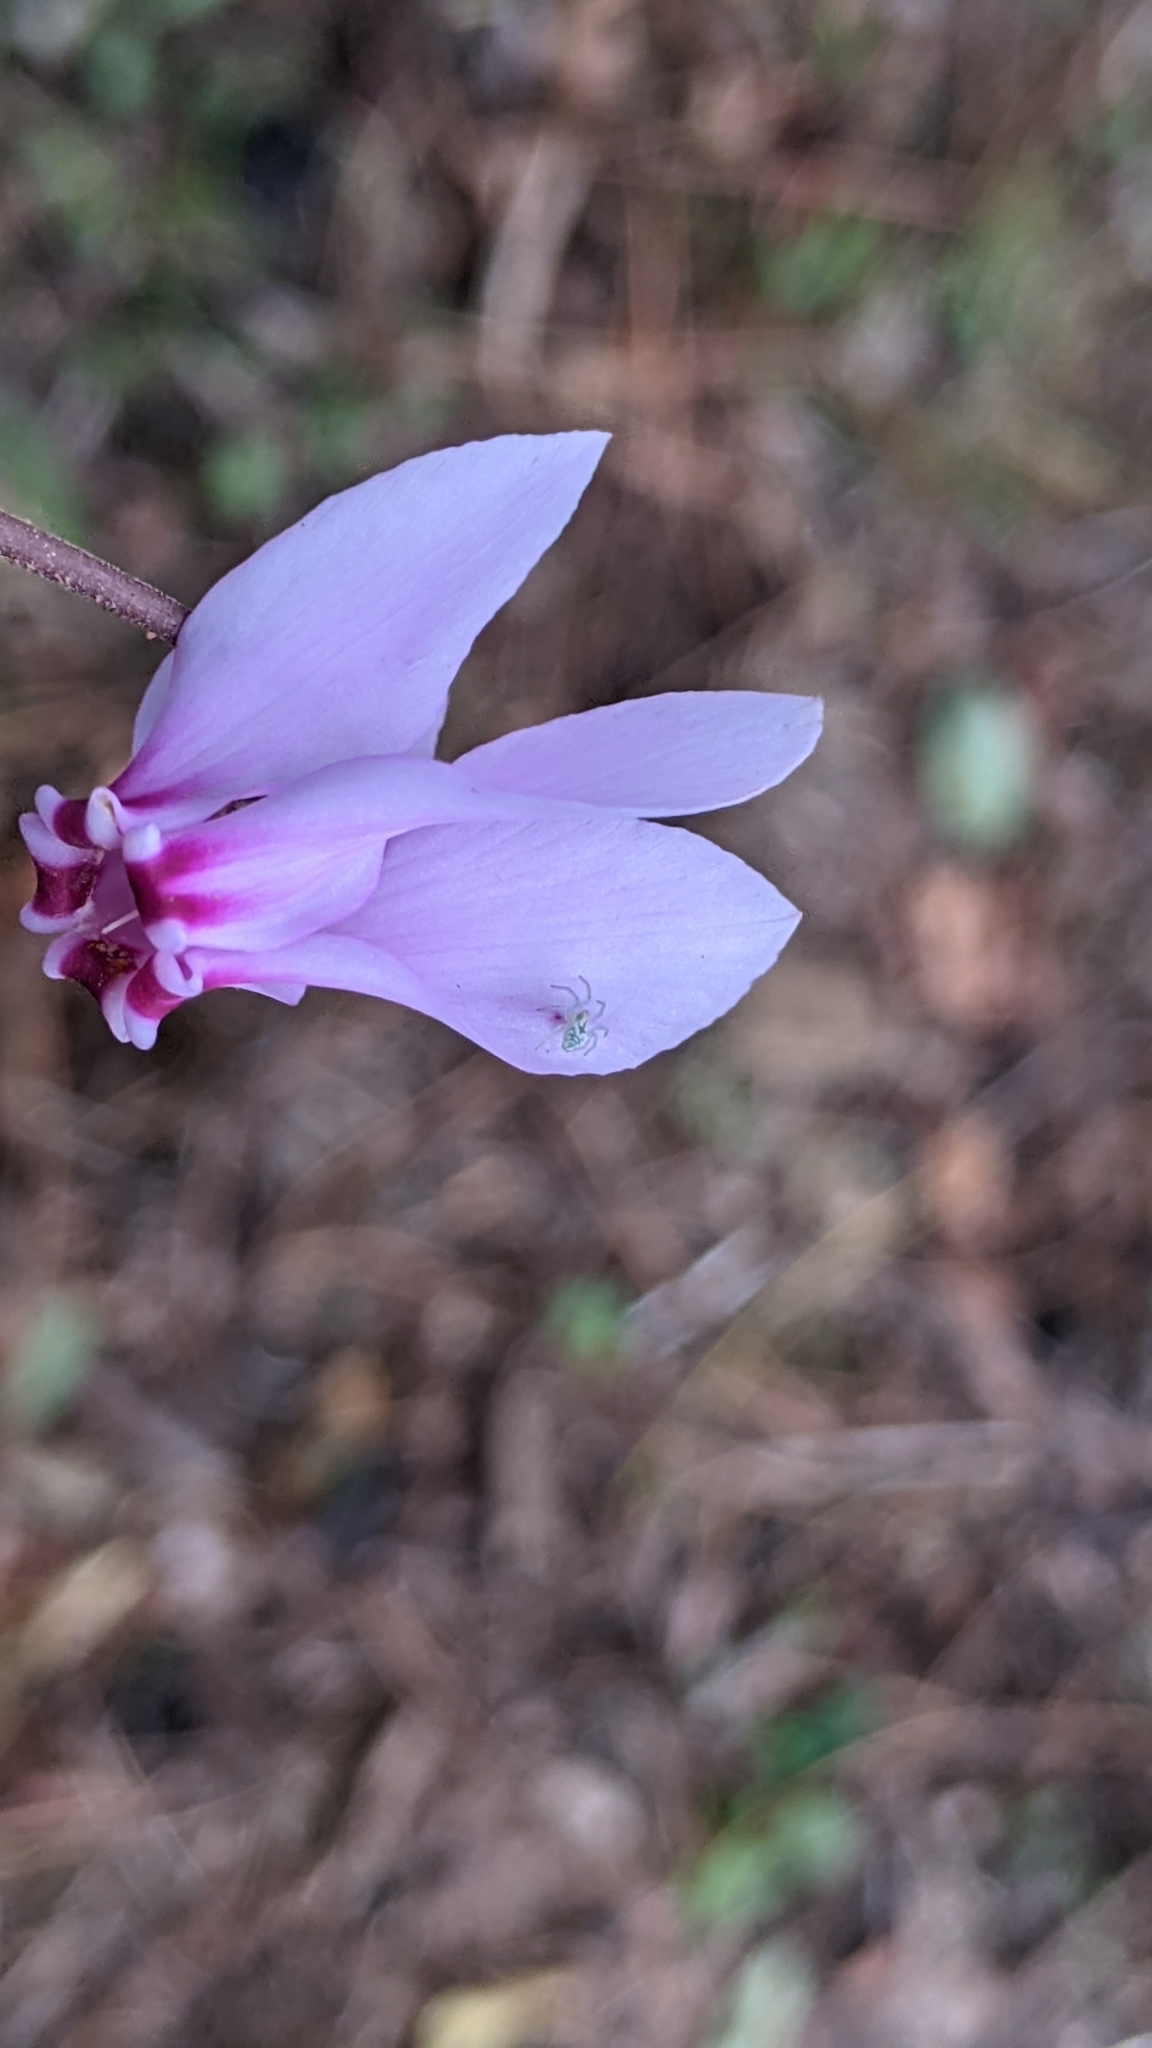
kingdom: Plantae
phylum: Tracheophyta
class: Magnoliopsida
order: Ericales
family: Primulaceae
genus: Cyclamen
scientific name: Cyclamen hederifolium
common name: Sowbread
